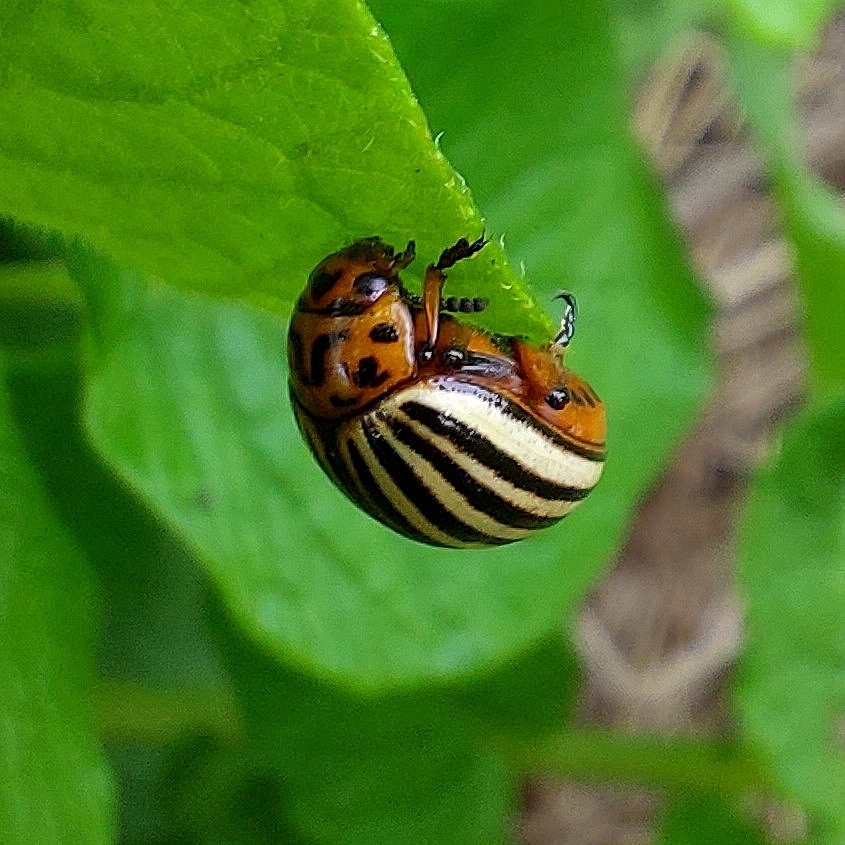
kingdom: Animalia
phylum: Arthropoda
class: Insecta
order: Coleoptera
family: Chrysomelidae
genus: Leptinotarsa
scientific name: Leptinotarsa decemlineata
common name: Colorado potato beetle
